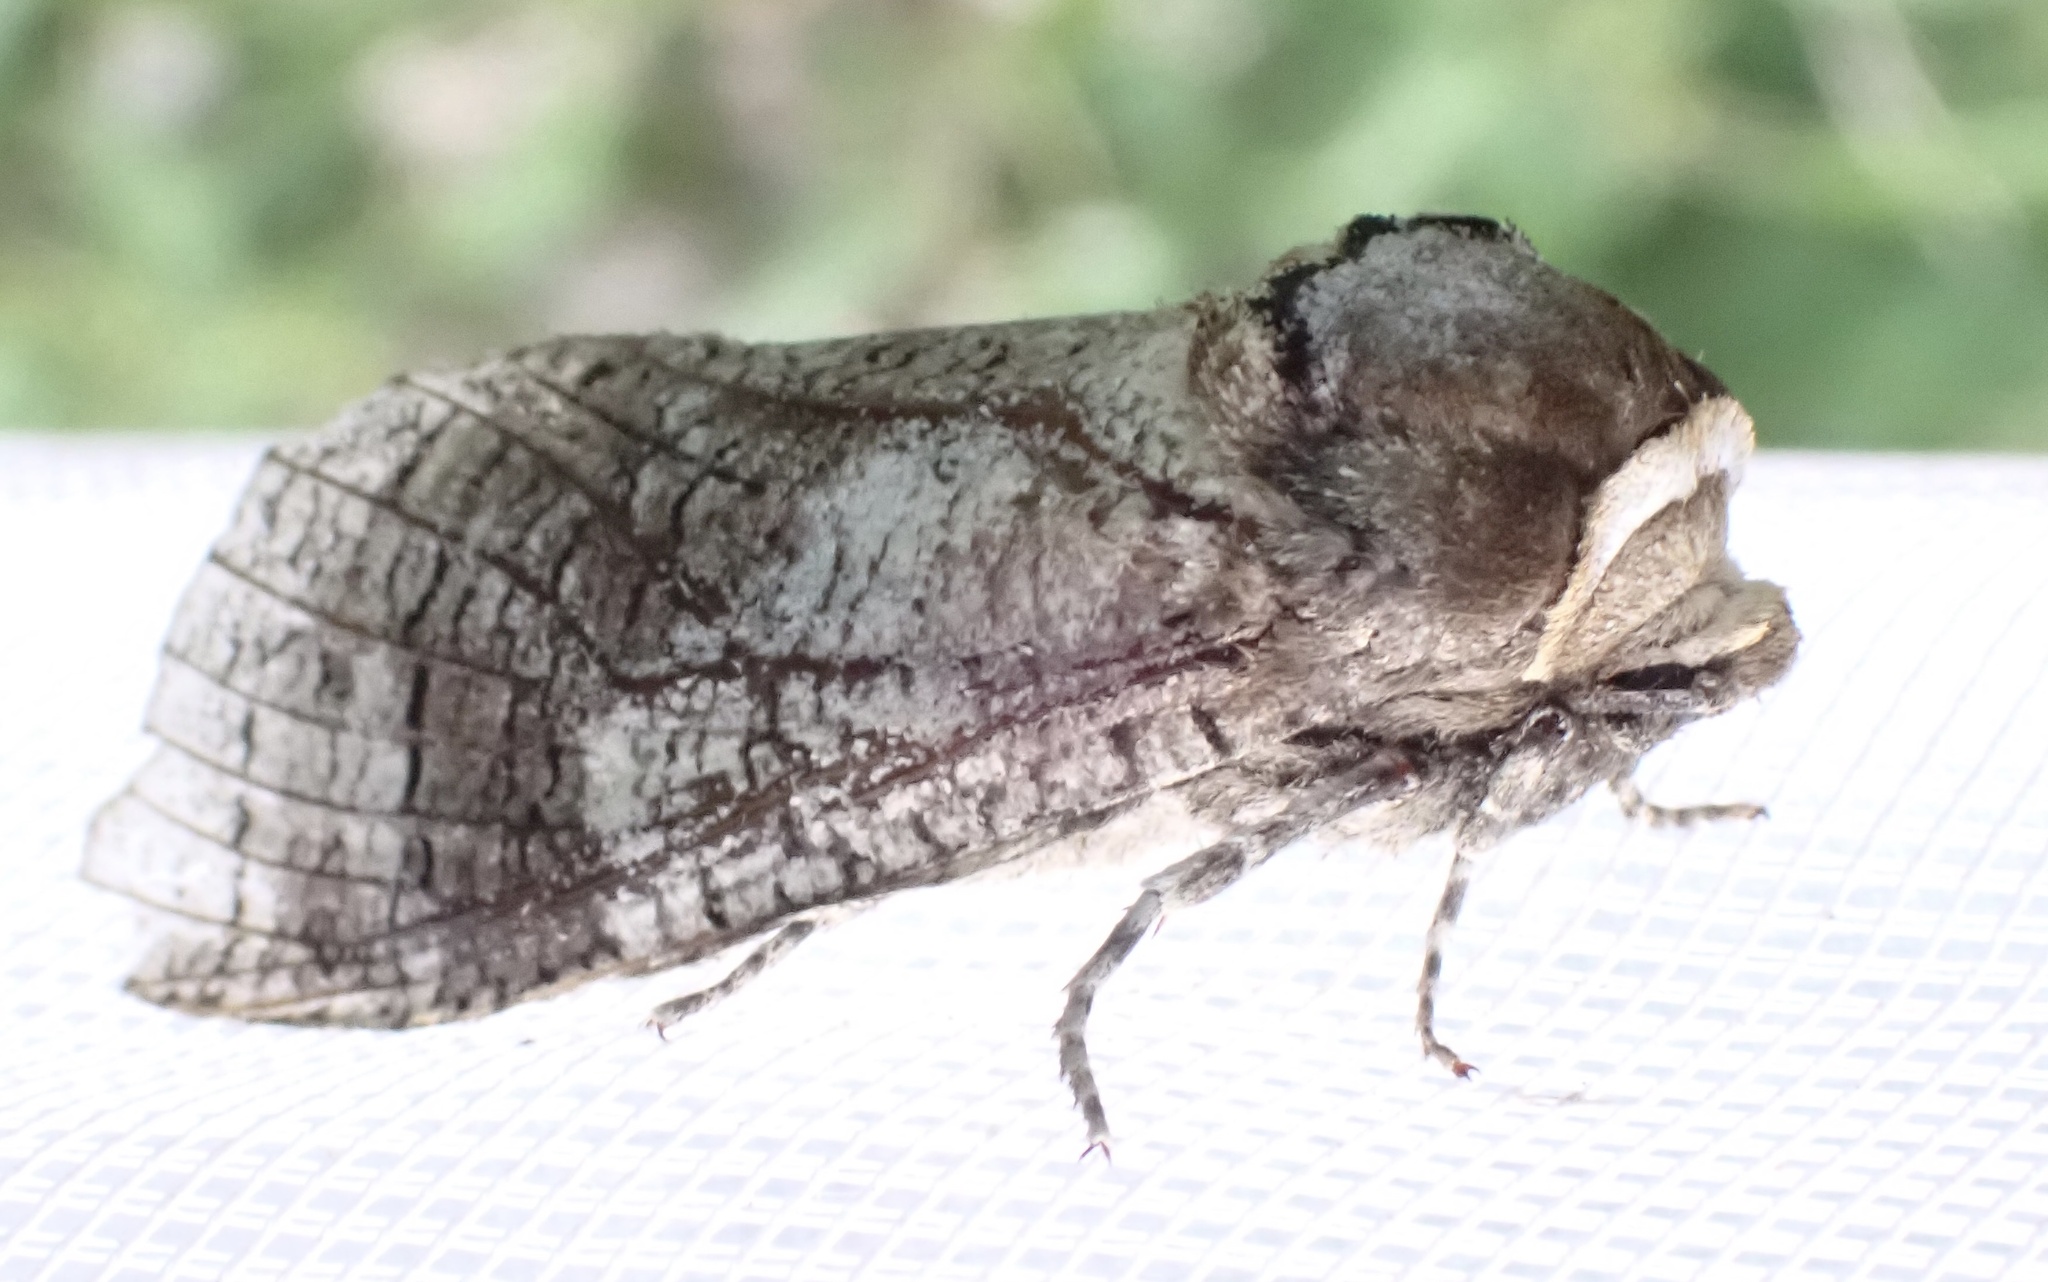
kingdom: Animalia
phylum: Arthropoda
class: Insecta
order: Lepidoptera
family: Cossidae
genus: Cossus
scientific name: Cossus cossus
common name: Goat moth
